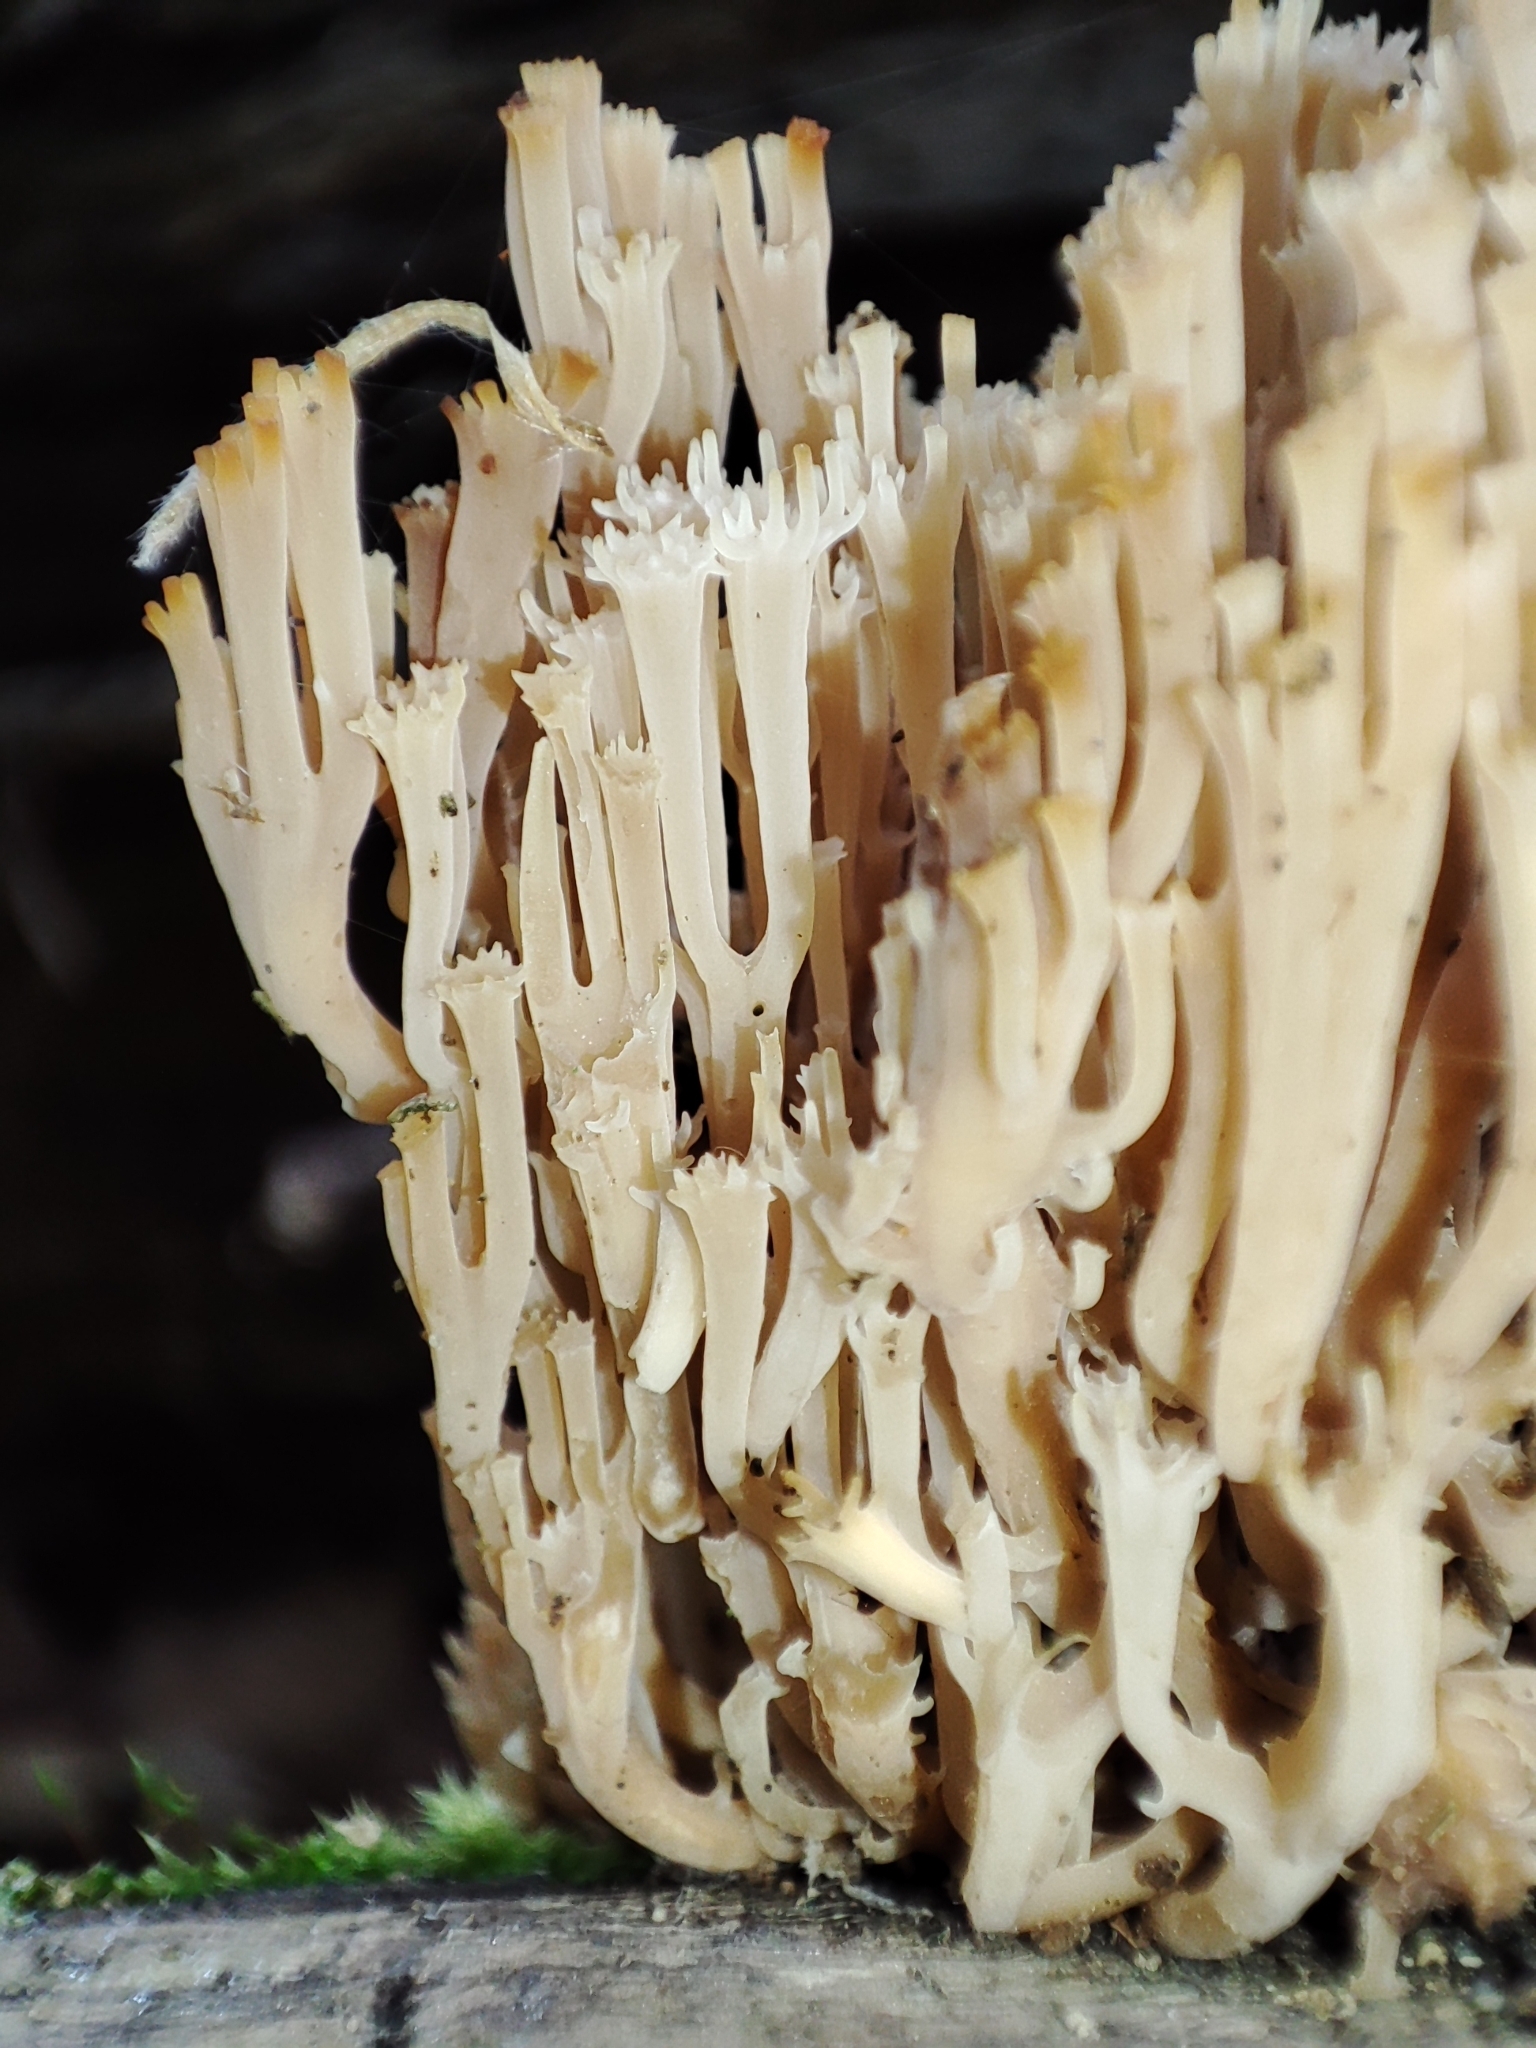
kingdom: Fungi
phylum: Basidiomycota
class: Agaricomycetes
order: Russulales
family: Auriscalpiaceae
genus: Artomyces
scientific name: Artomyces pyxidatus
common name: Crown-tipped coral fungus
